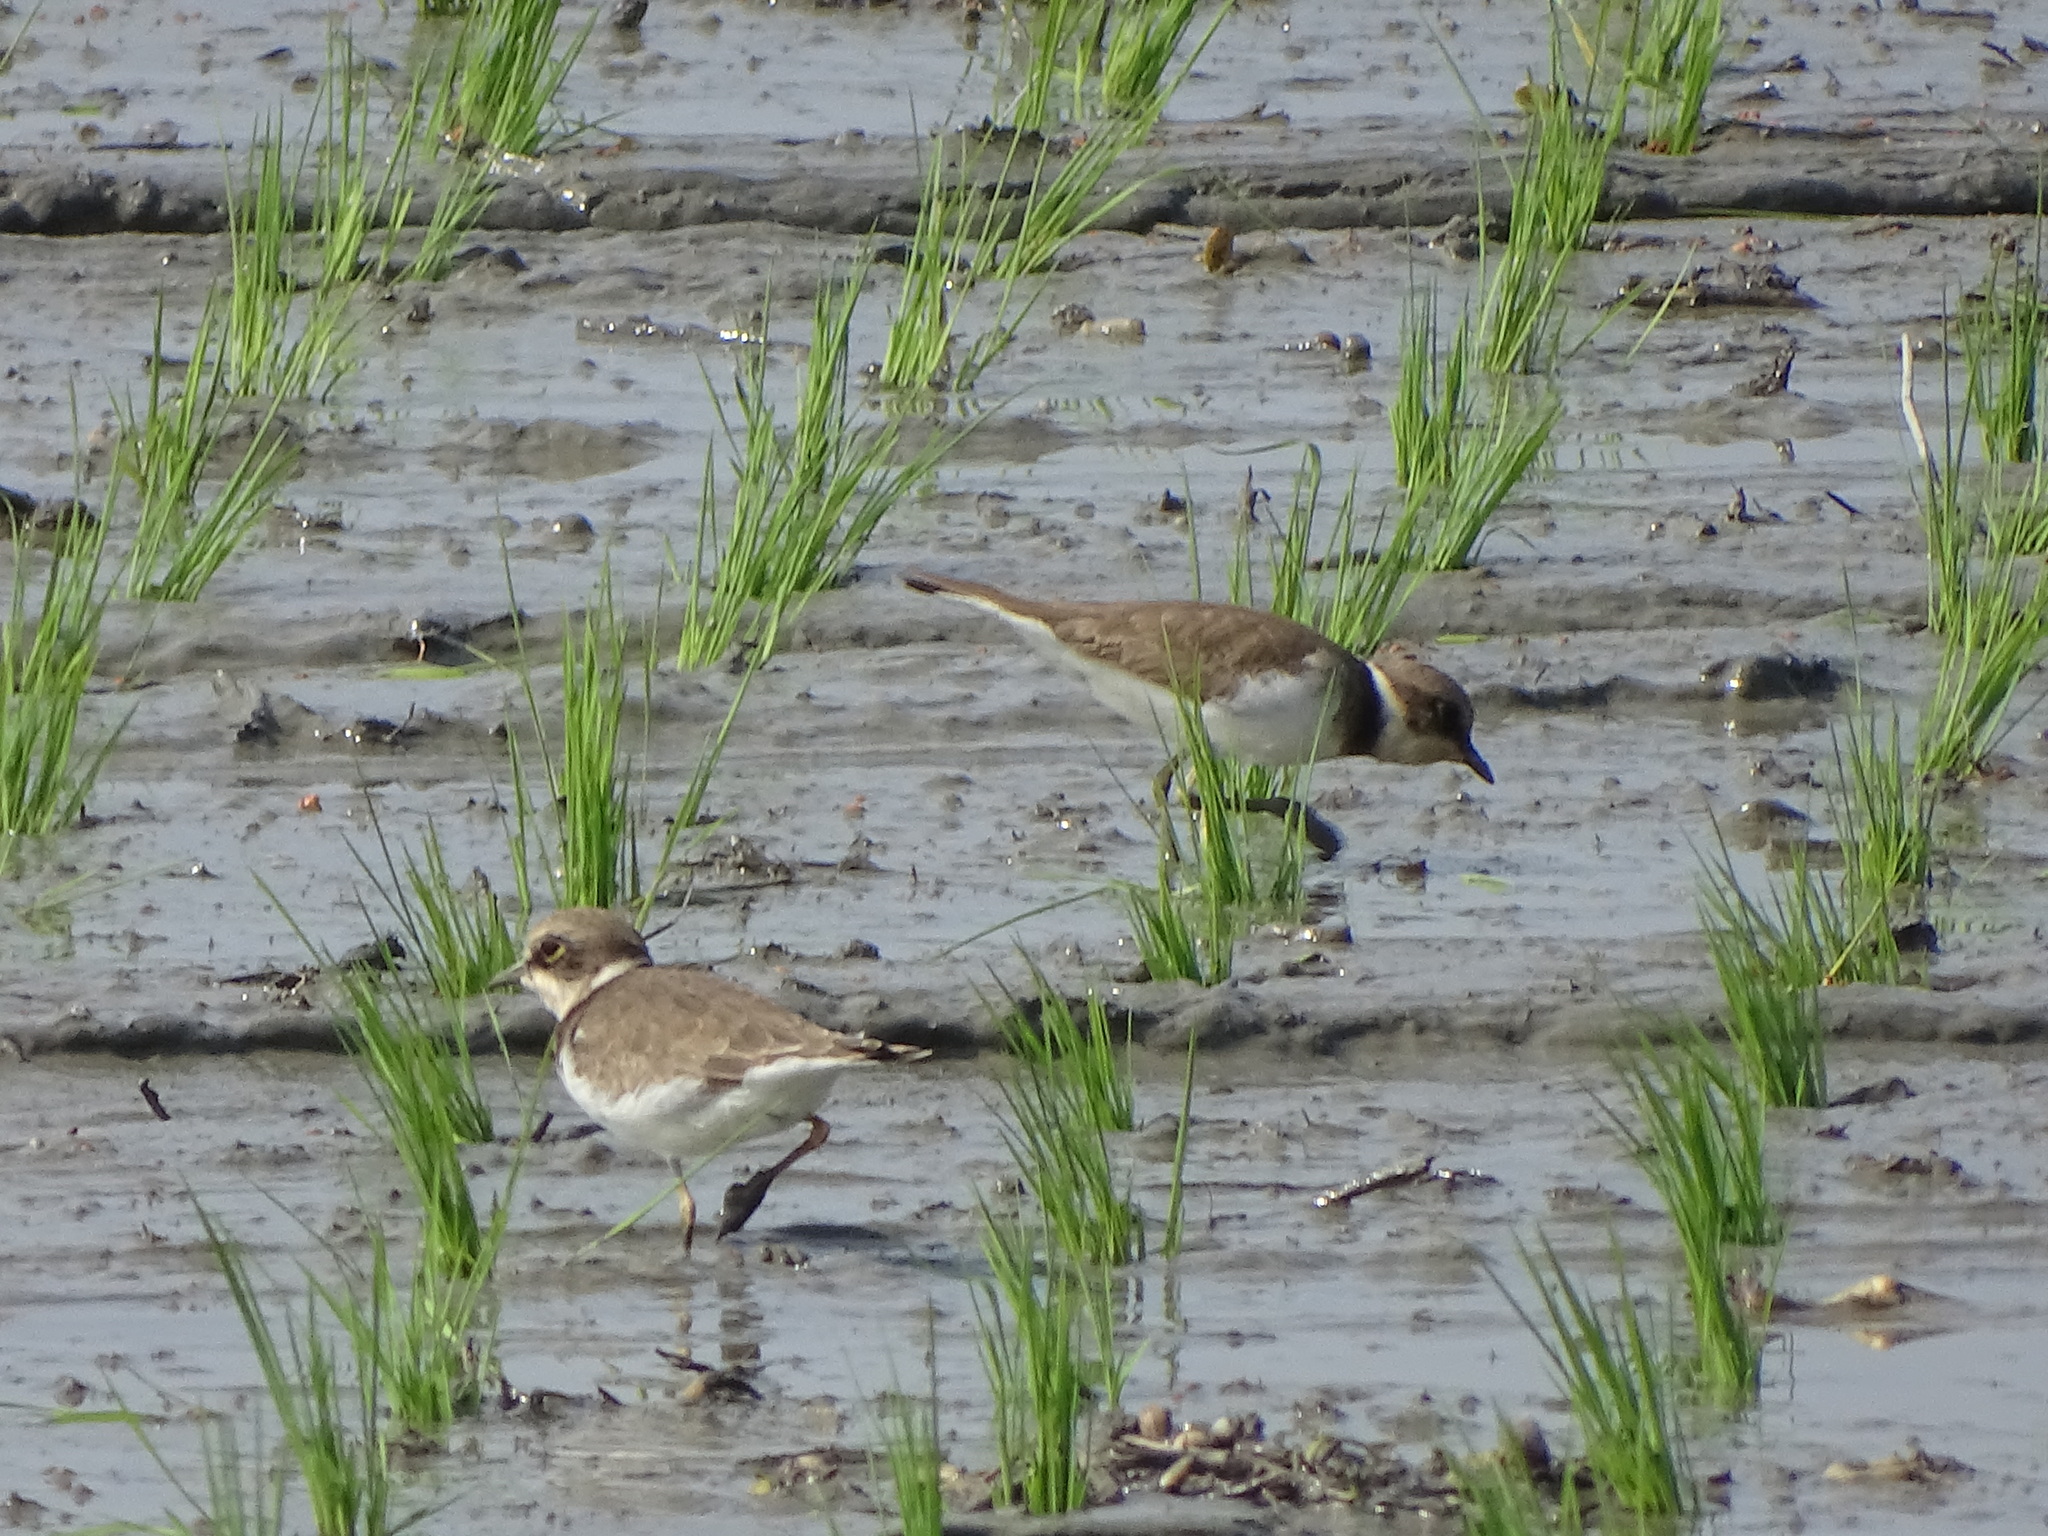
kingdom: Animalia
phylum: Chordata
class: Aves
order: Charadriiformes
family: Charadriidae
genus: Charadrius
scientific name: Charadrius dubius
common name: Little ringed plover
